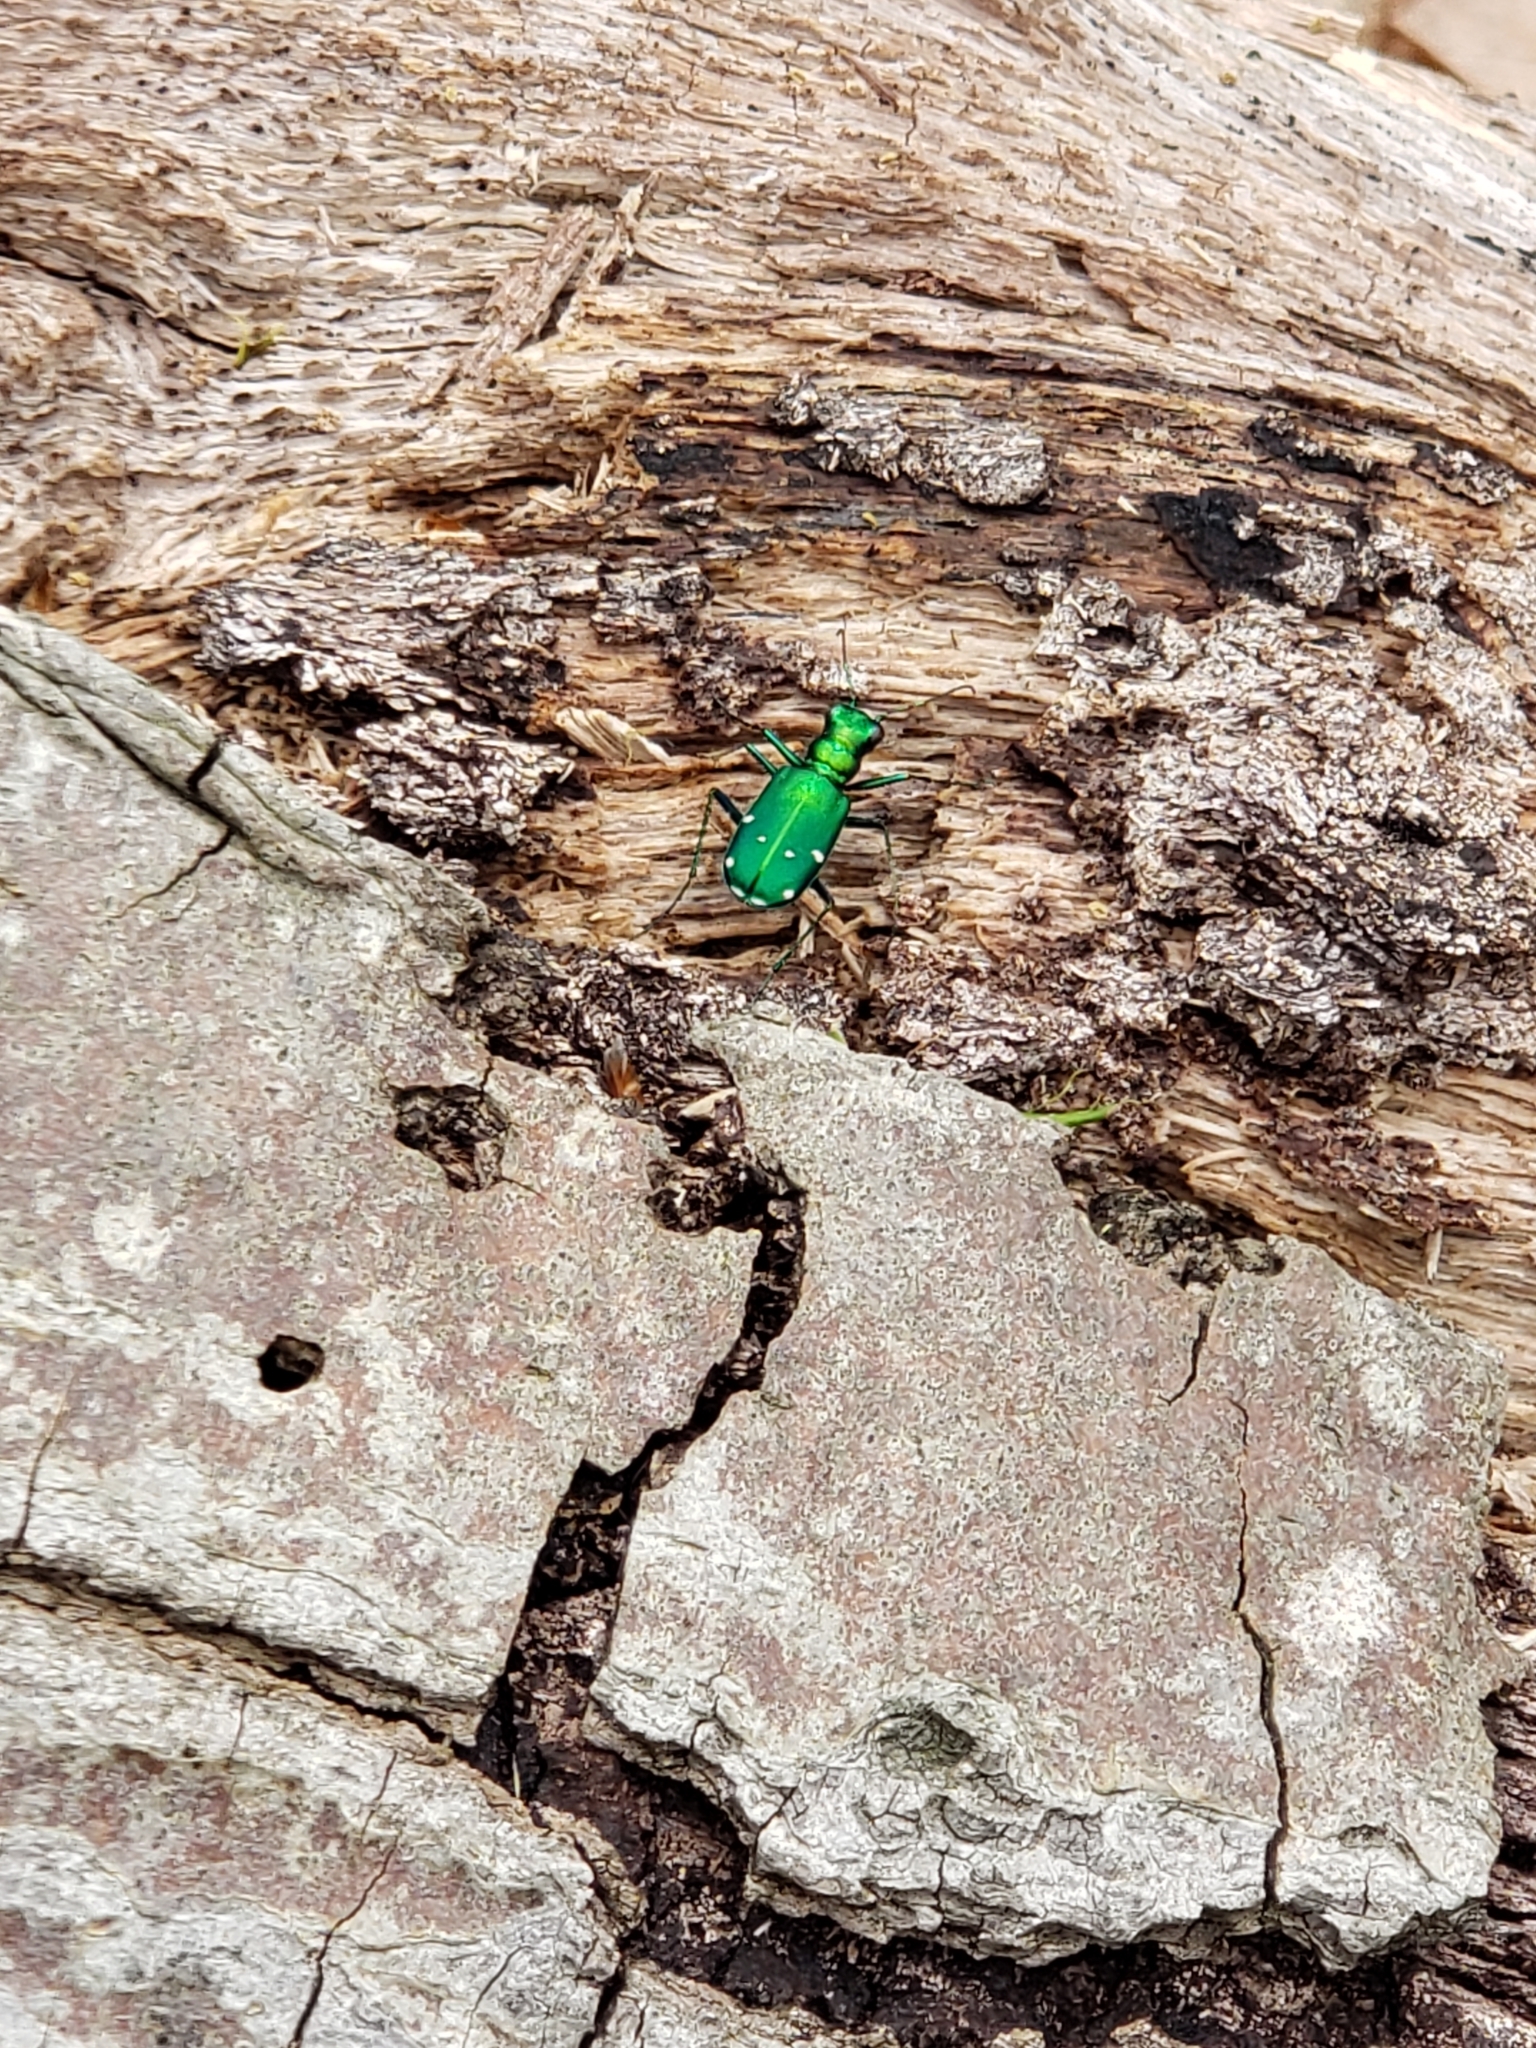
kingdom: Animalia
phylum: Arthropoda
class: Insecta
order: Coleoptera
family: Carabidae
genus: Cicindela
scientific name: Cicindela sexguttata
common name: Six-spotted tiger beetle
